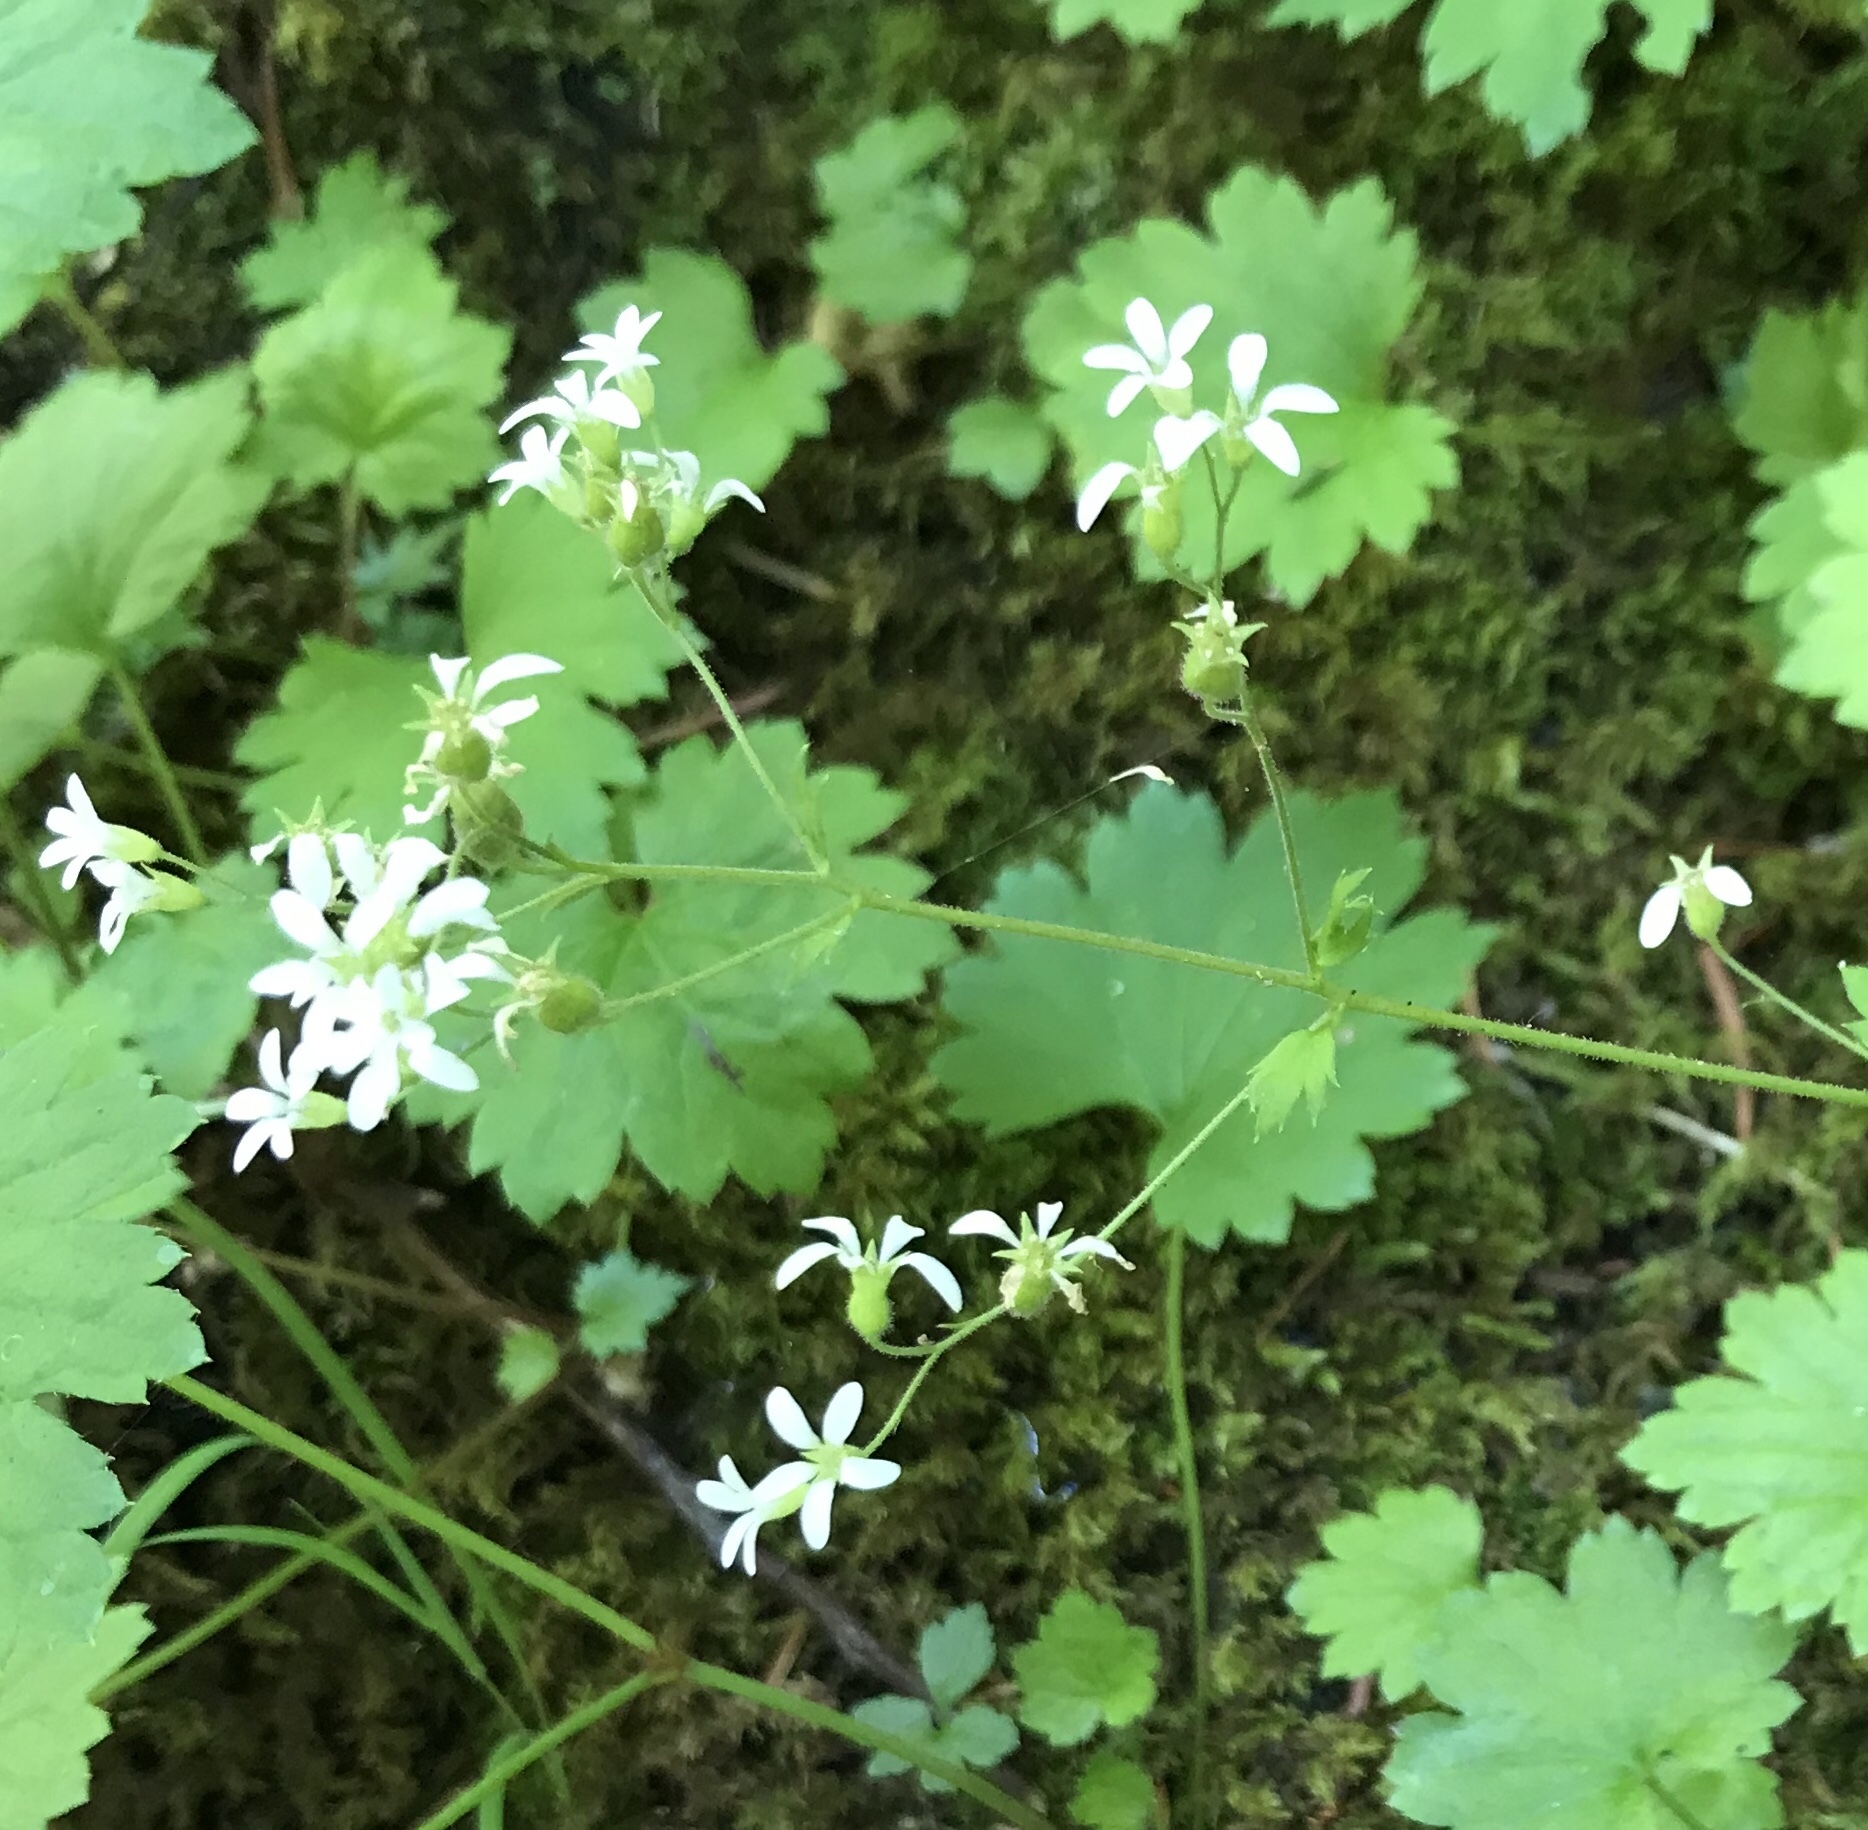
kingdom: Plantae
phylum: Tracheophyta
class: Magnoliopsida
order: Saxifragales
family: Saxifragaceae
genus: Boykinia
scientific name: Boykinia occidentalis
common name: Coast boykinia
